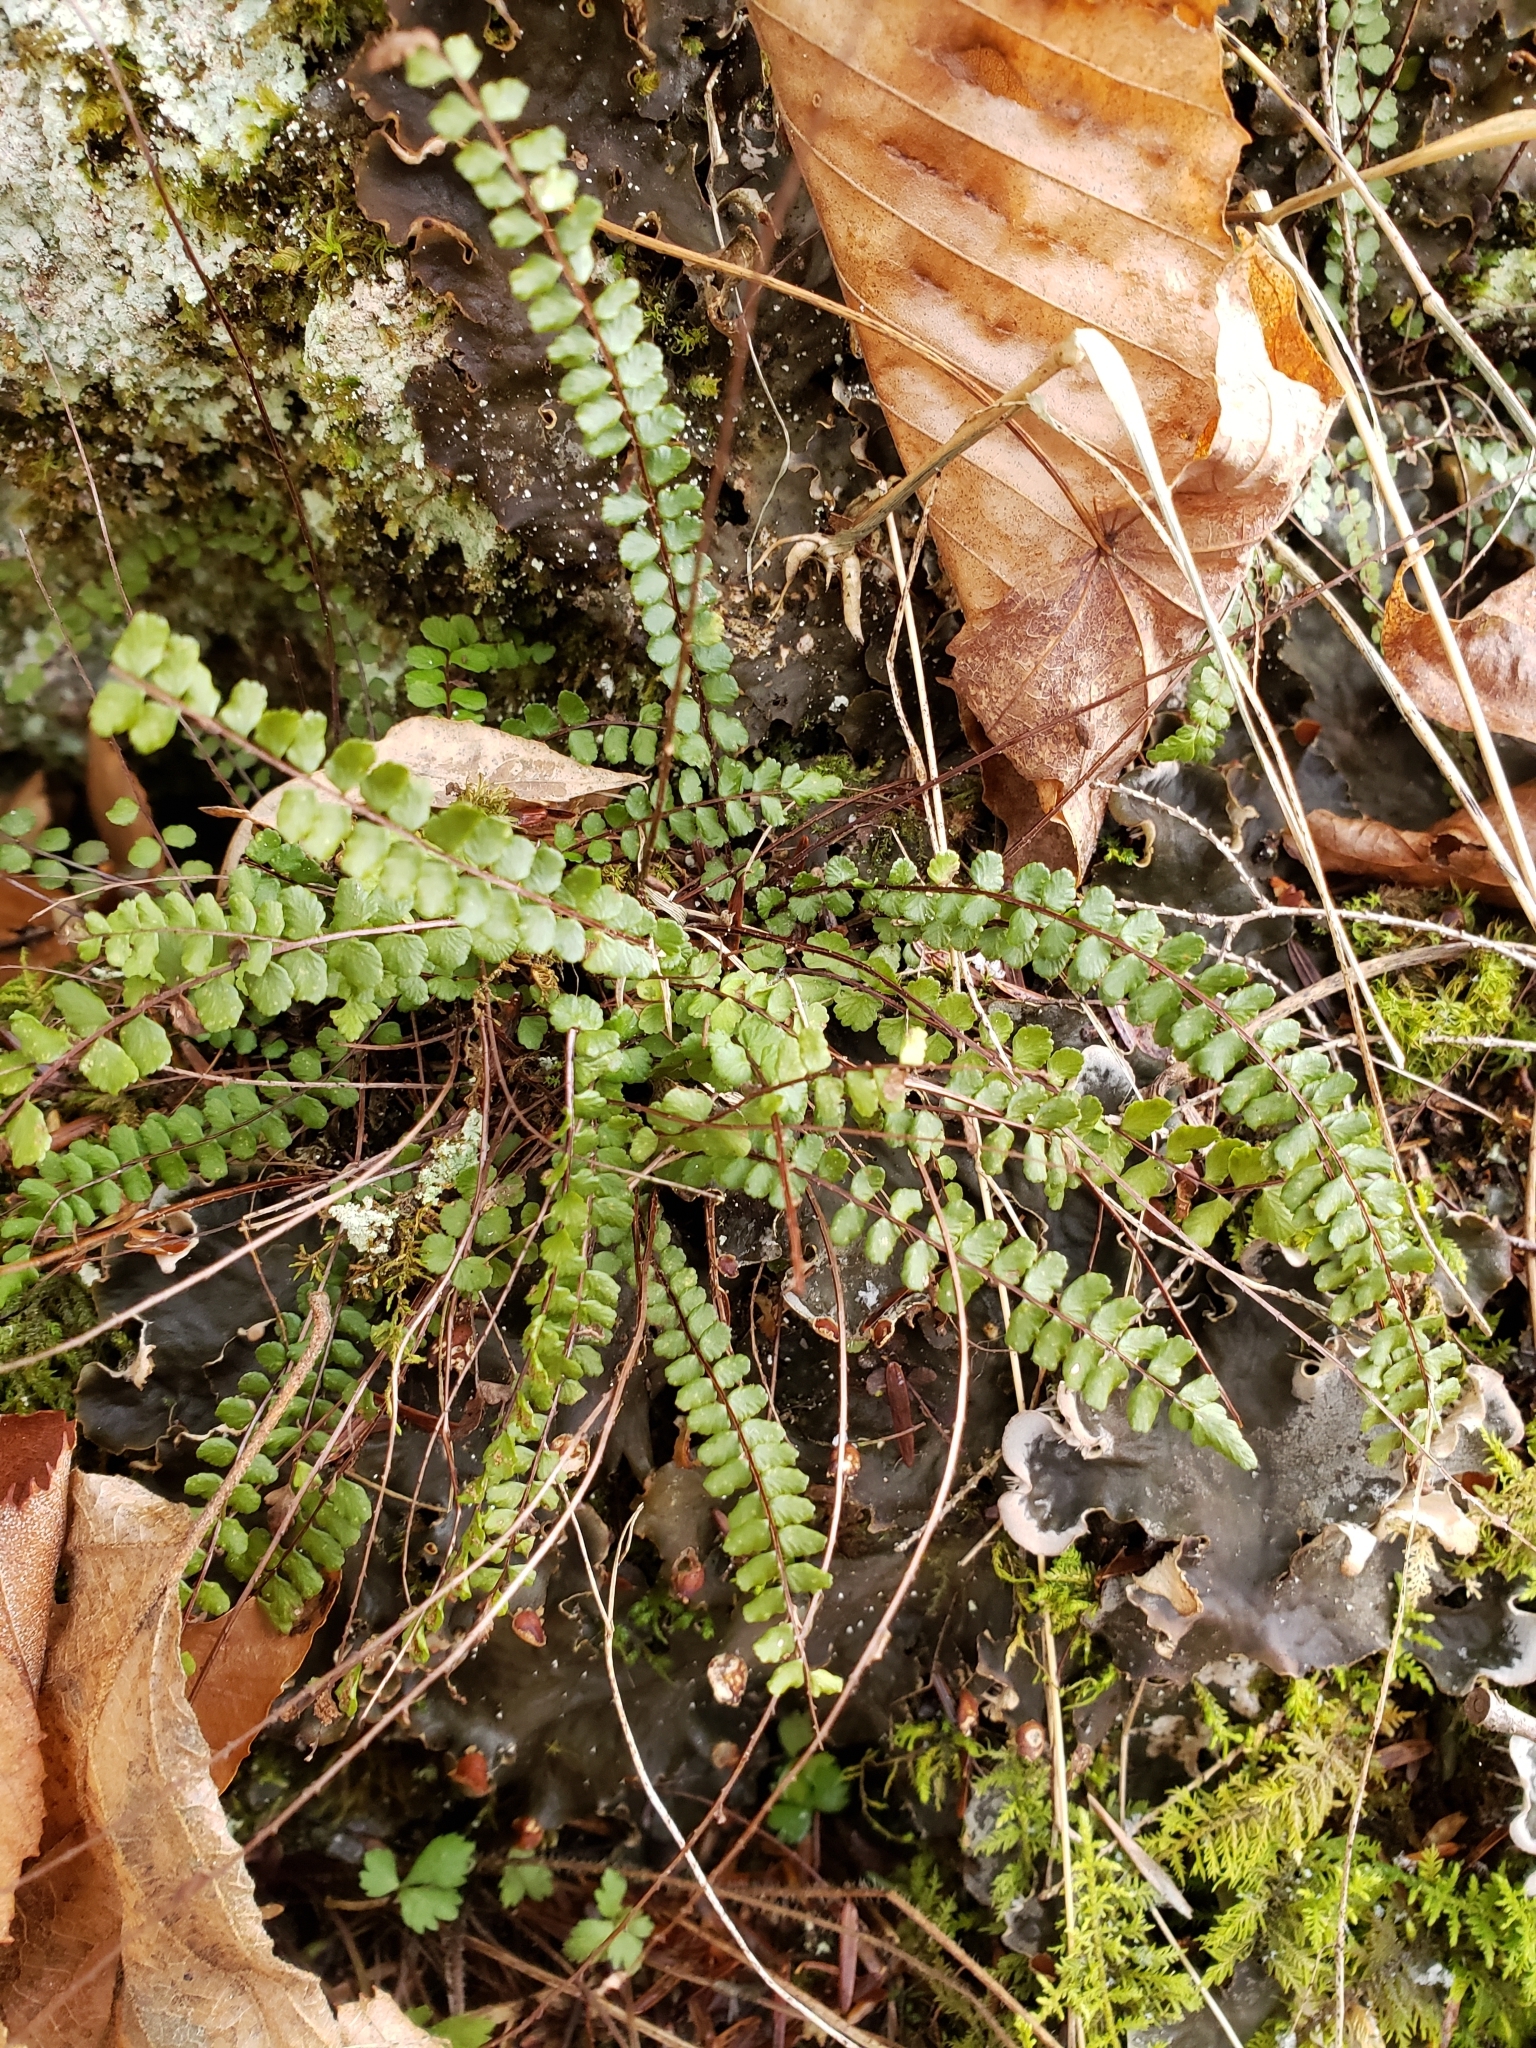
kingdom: Plantae
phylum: Tracheophyta
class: Polypodiopsida
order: Polypodiales
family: Aspleniaceae
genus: Asplenium
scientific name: Asplenium trichomanes
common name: Maidenhair spleenwort
